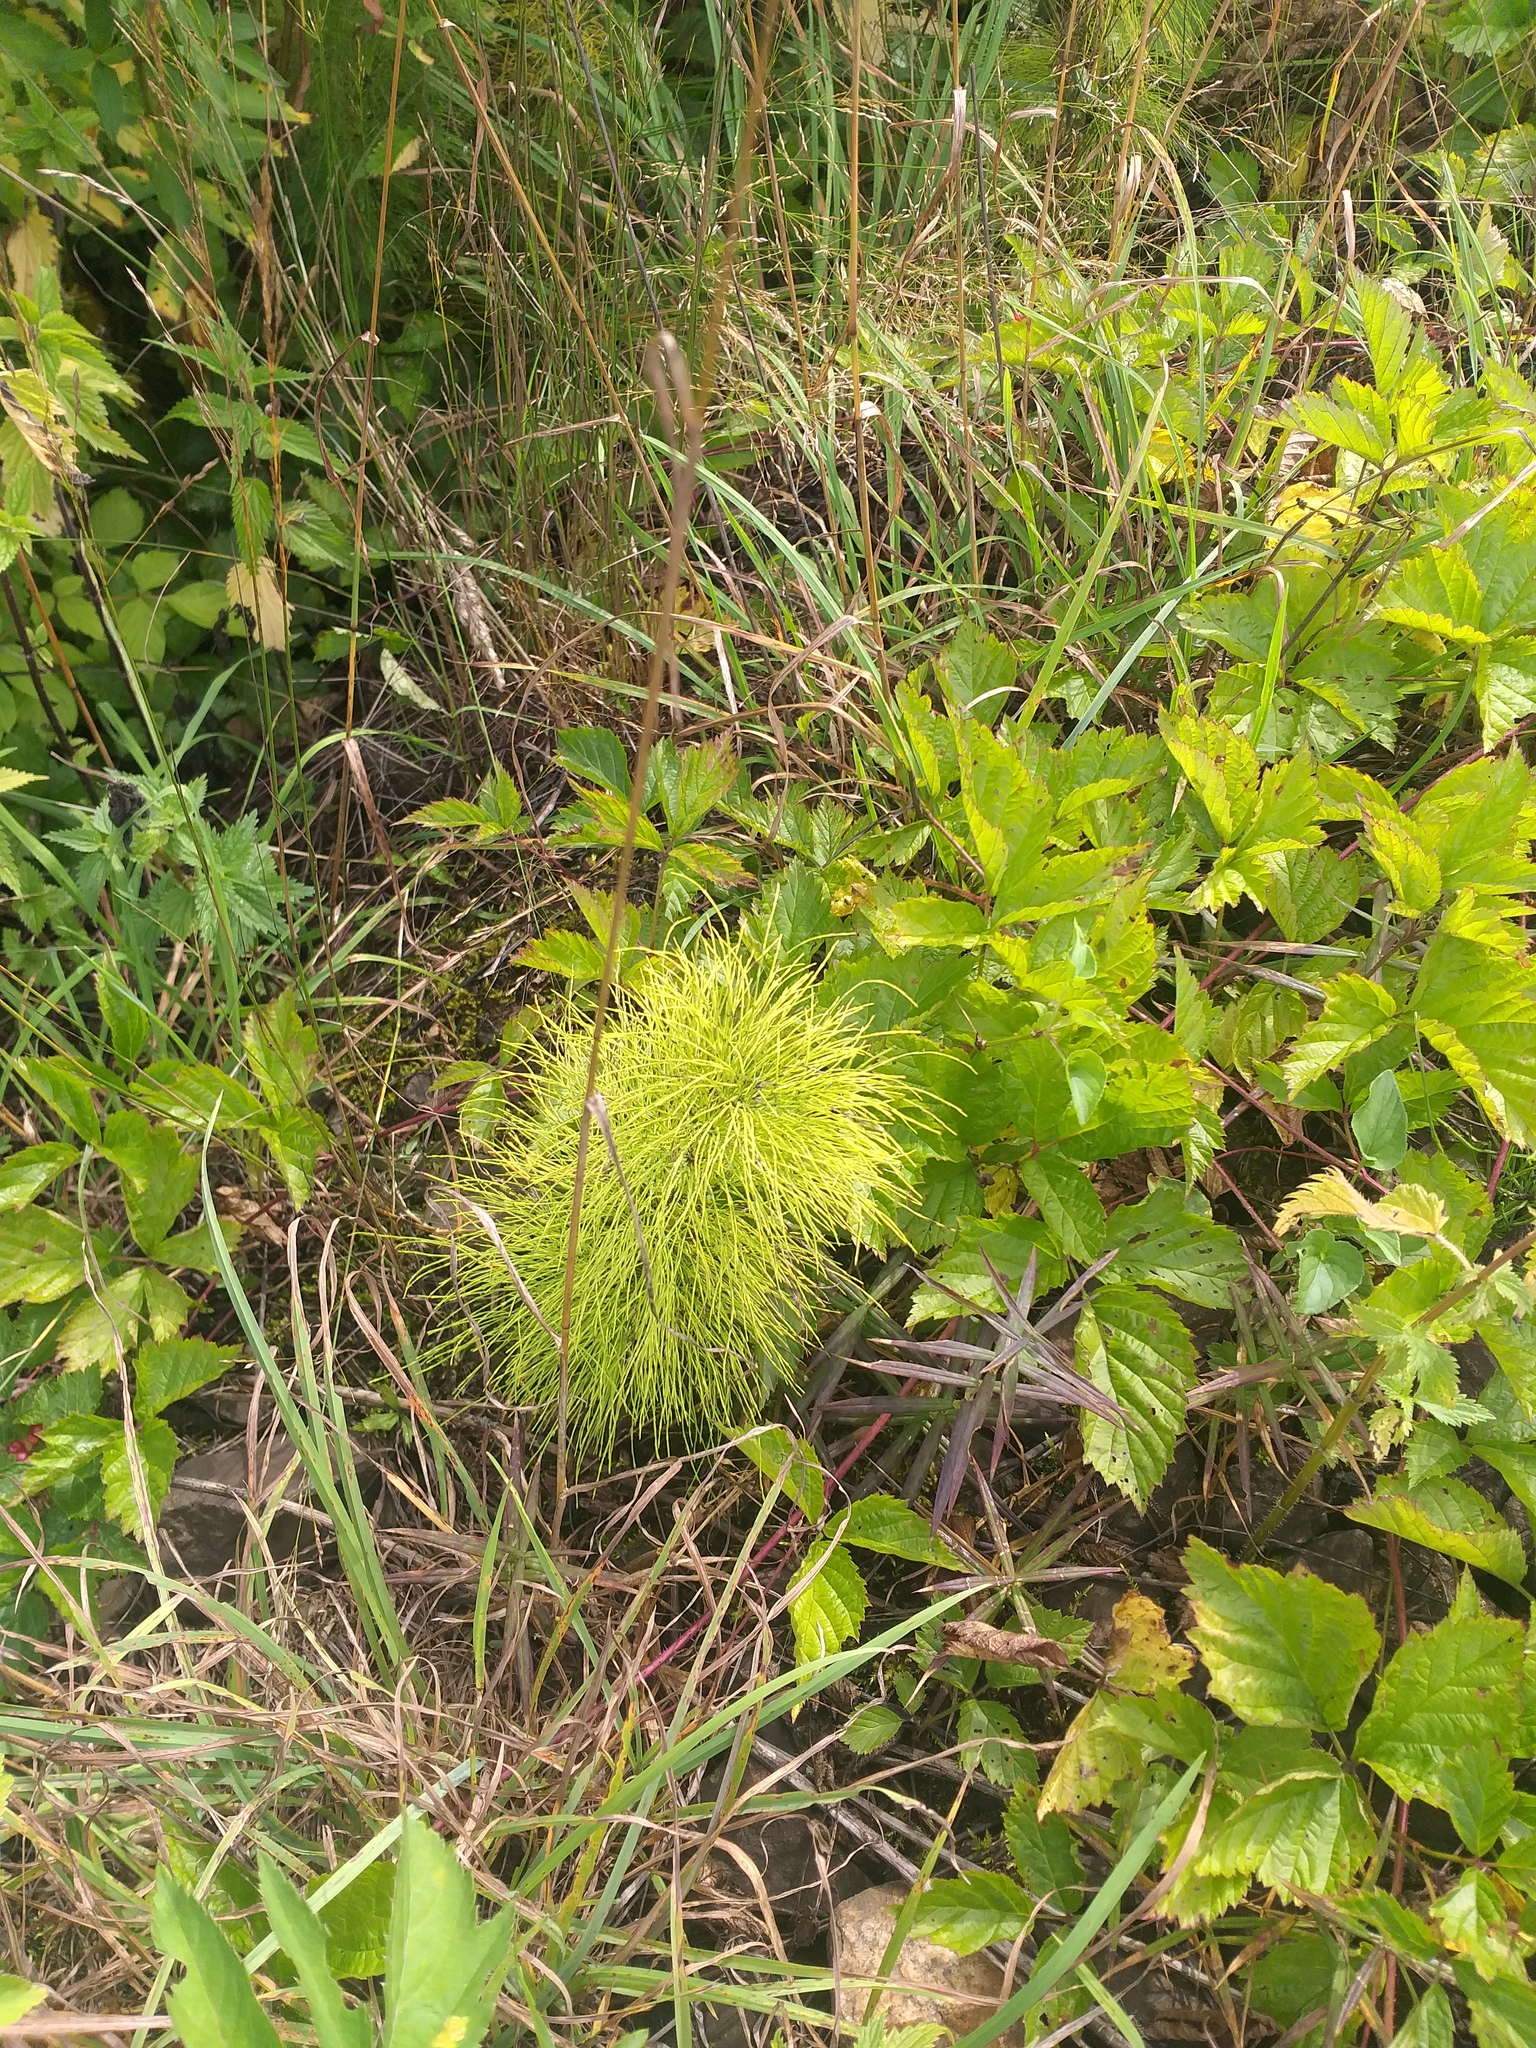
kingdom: Plantae
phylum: Tracheophyta
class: Polypodiopsida
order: Equisetales
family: Equisetaceae
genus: Equisetum
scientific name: Equisetum sylvaticum
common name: Wood horsetail
